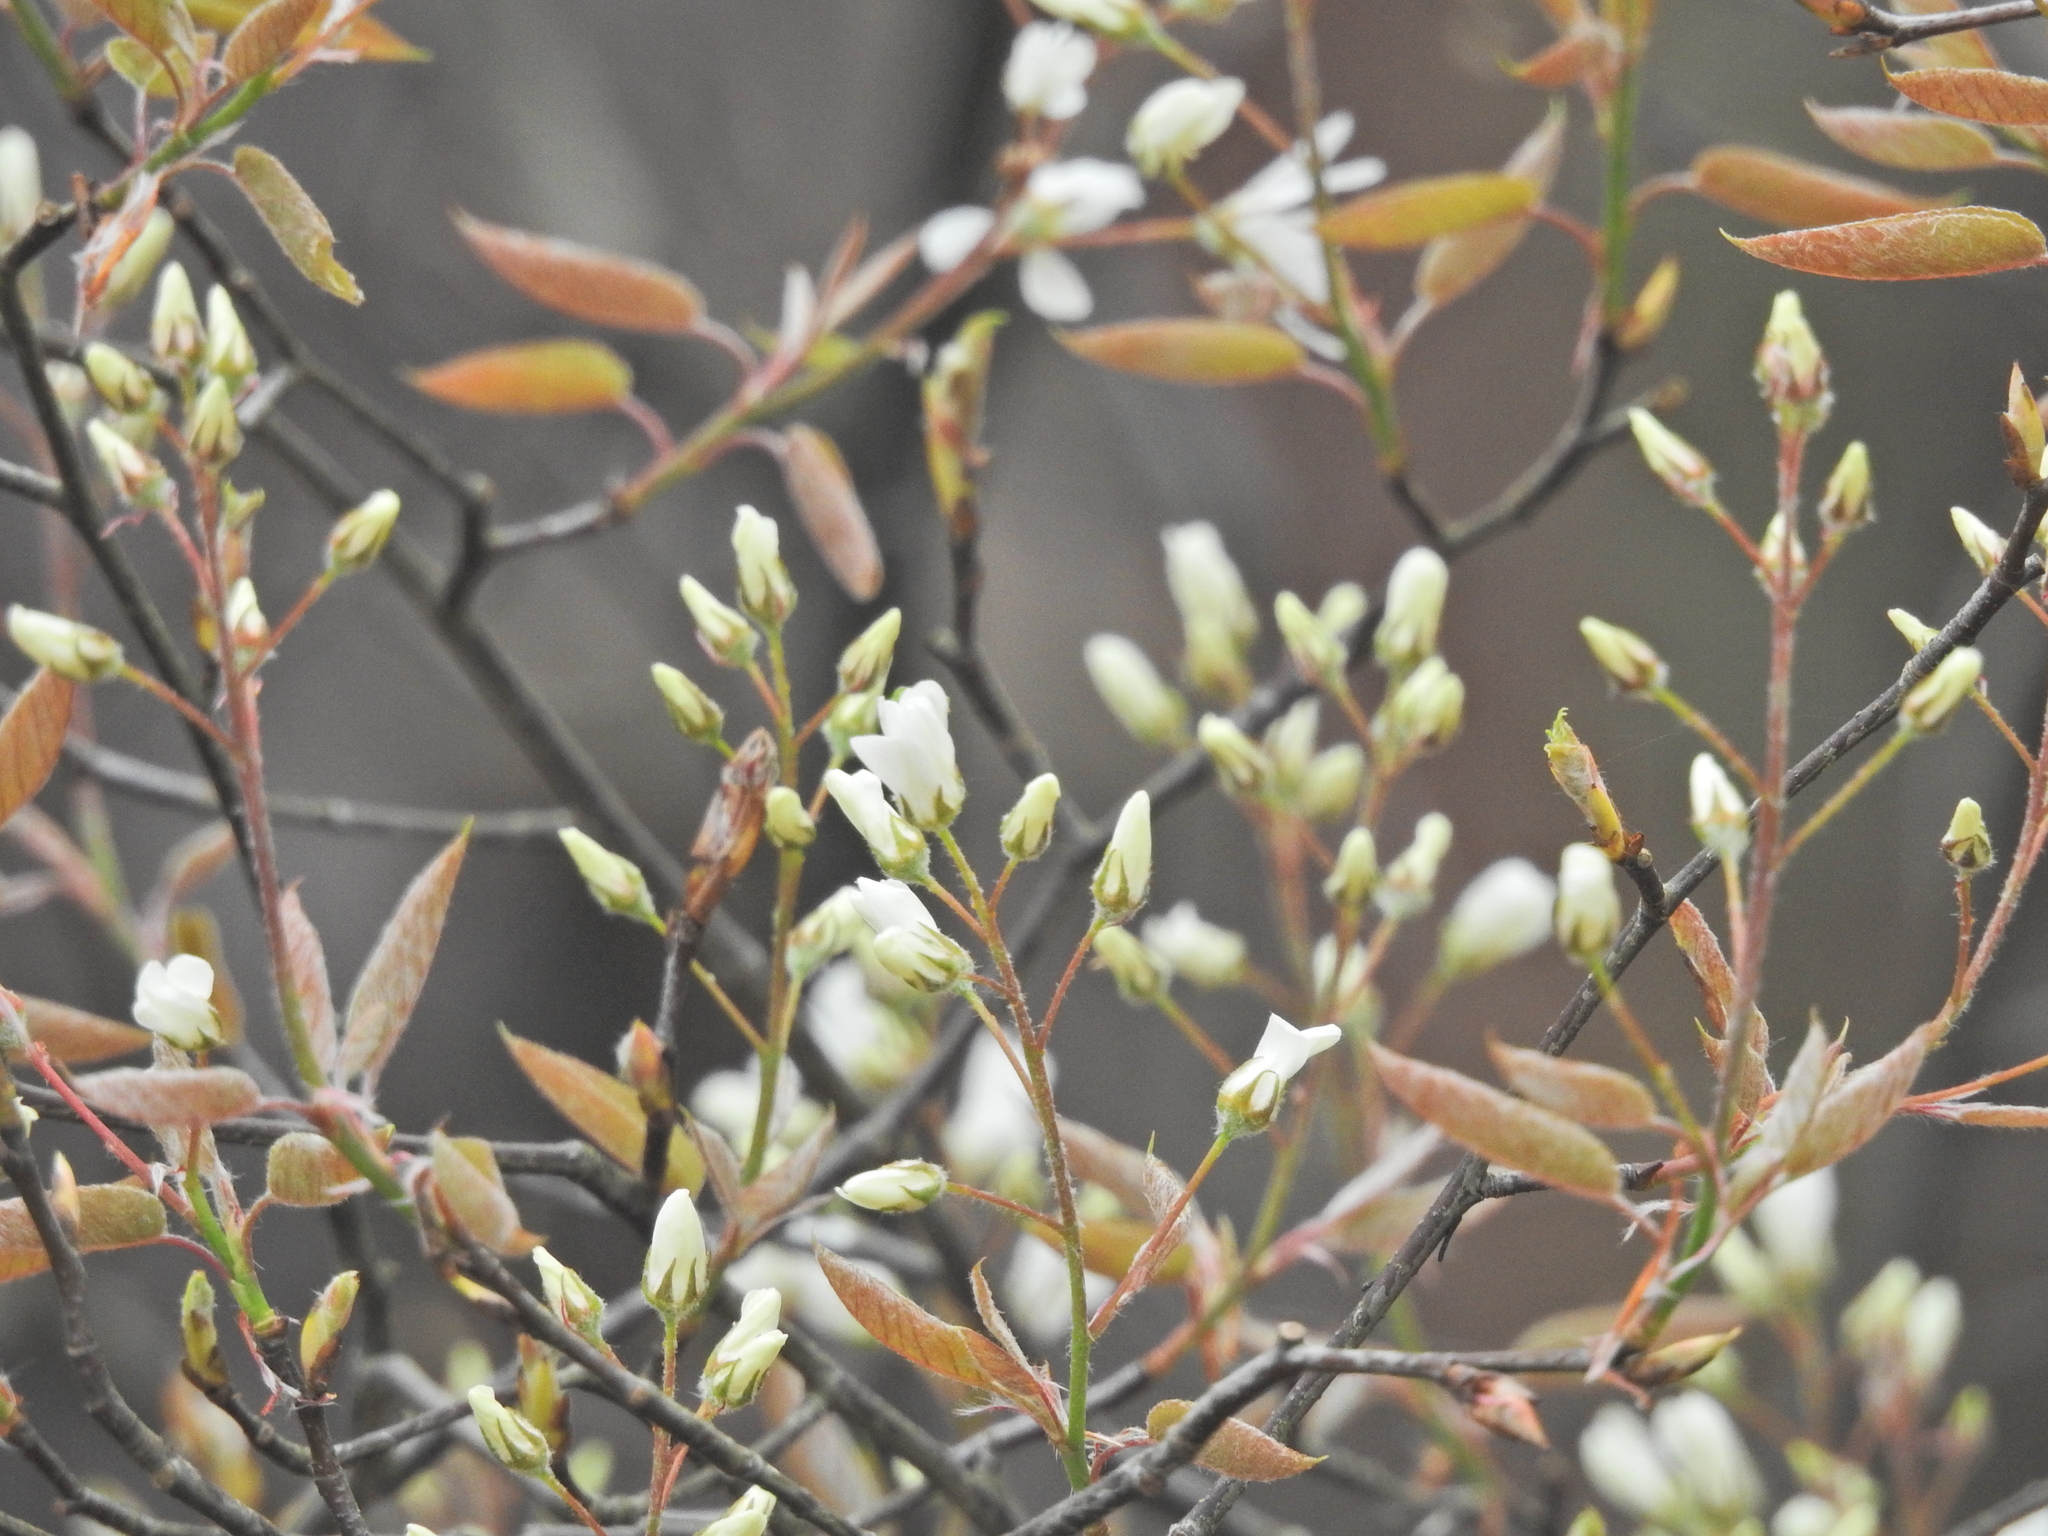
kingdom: Plantae
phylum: Tracheophyta
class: Magnoliopsida
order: Rosales
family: Rosaceae
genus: Amelanchier
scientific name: Amelanchier lamarckii
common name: Juneberry
